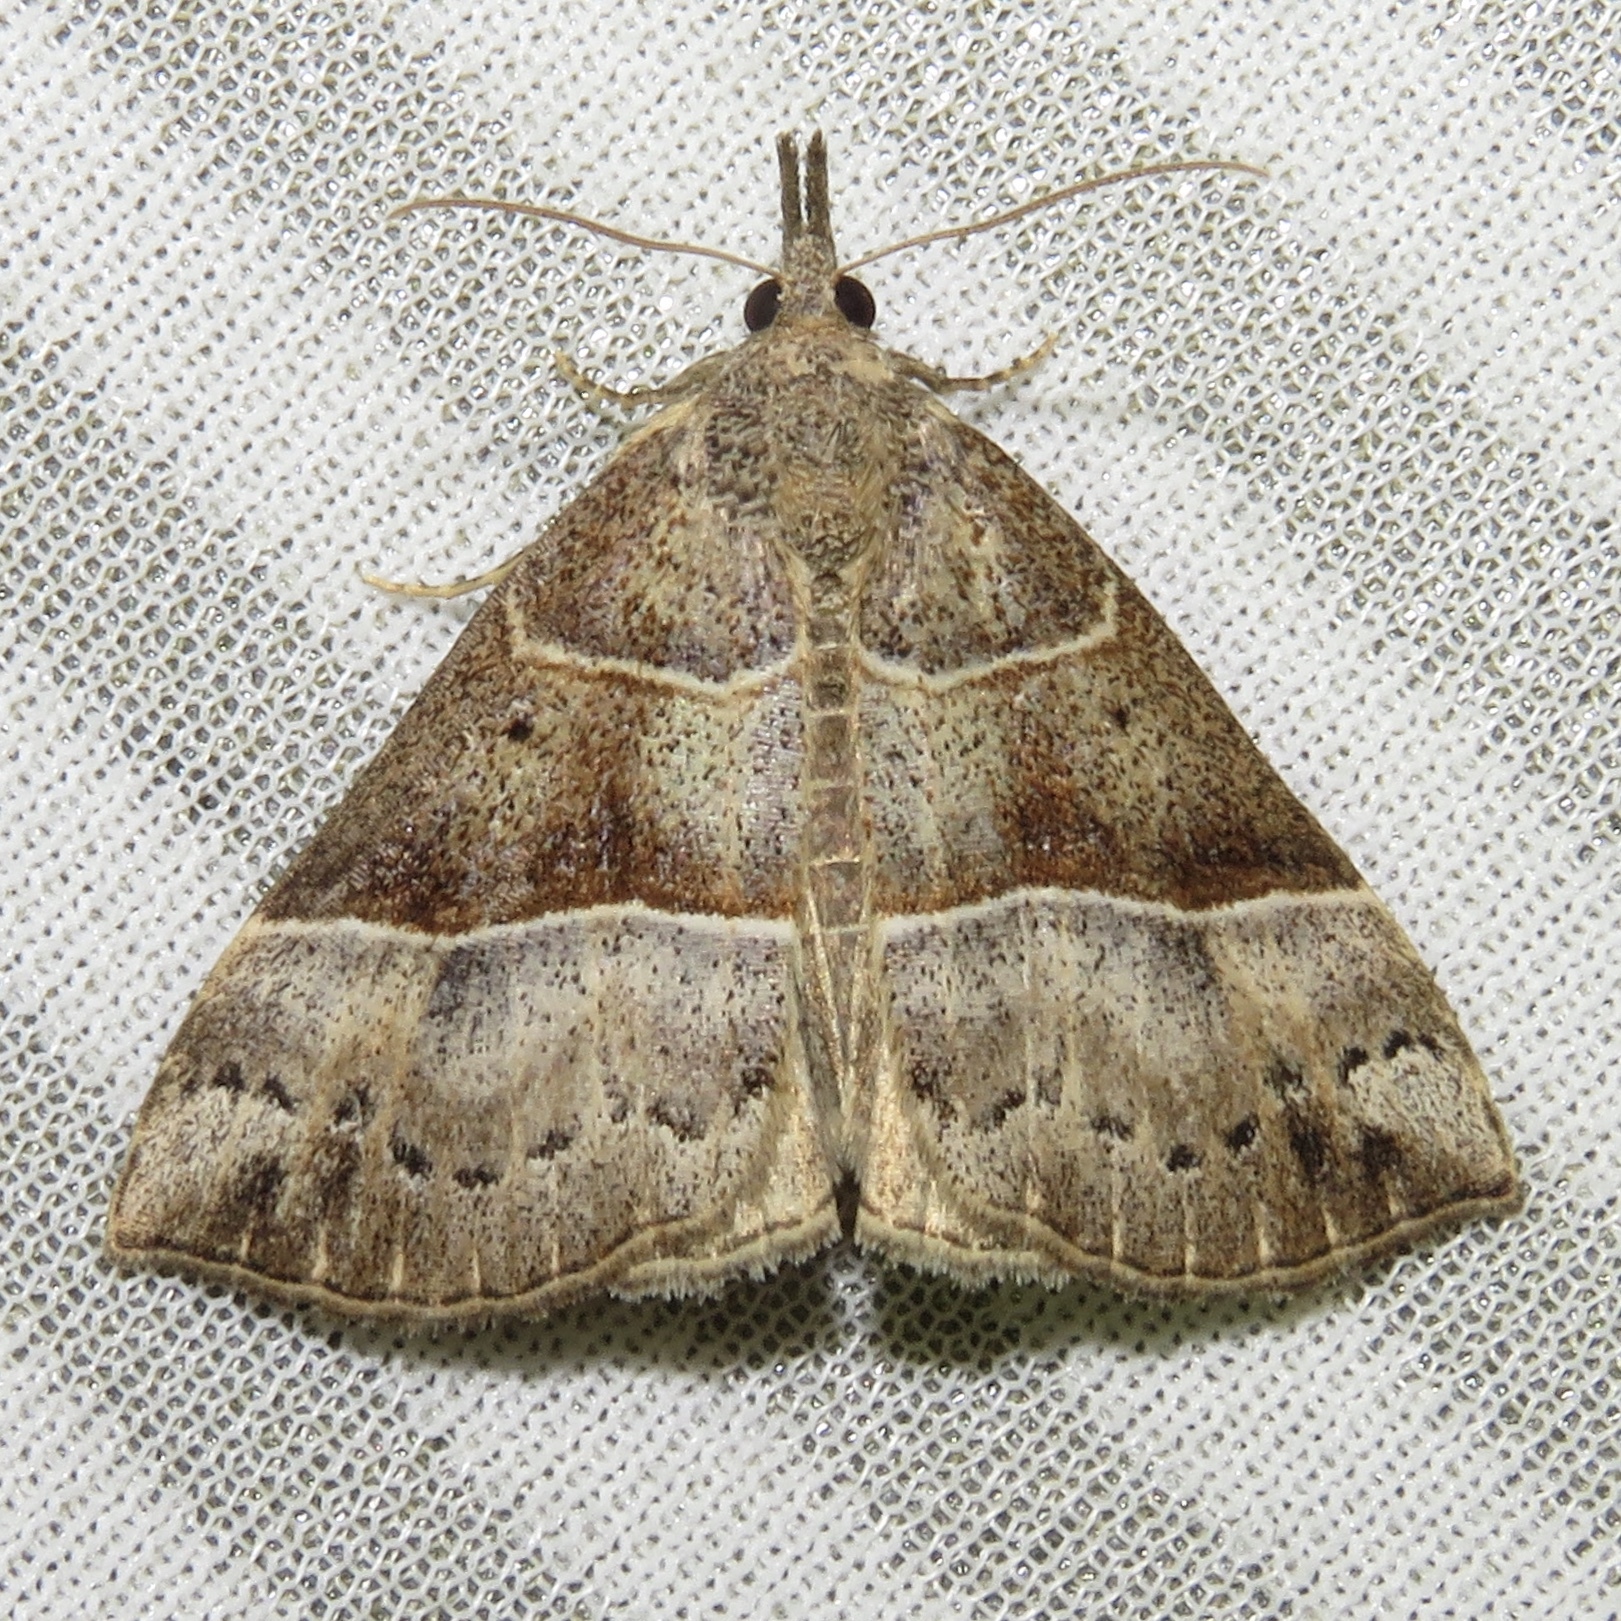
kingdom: Animalia
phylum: Arthropoda
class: Insecta
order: Lepidoptera
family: Erebidae
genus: Hypena
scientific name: Hypena deceptalis
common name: Deceptive snout
